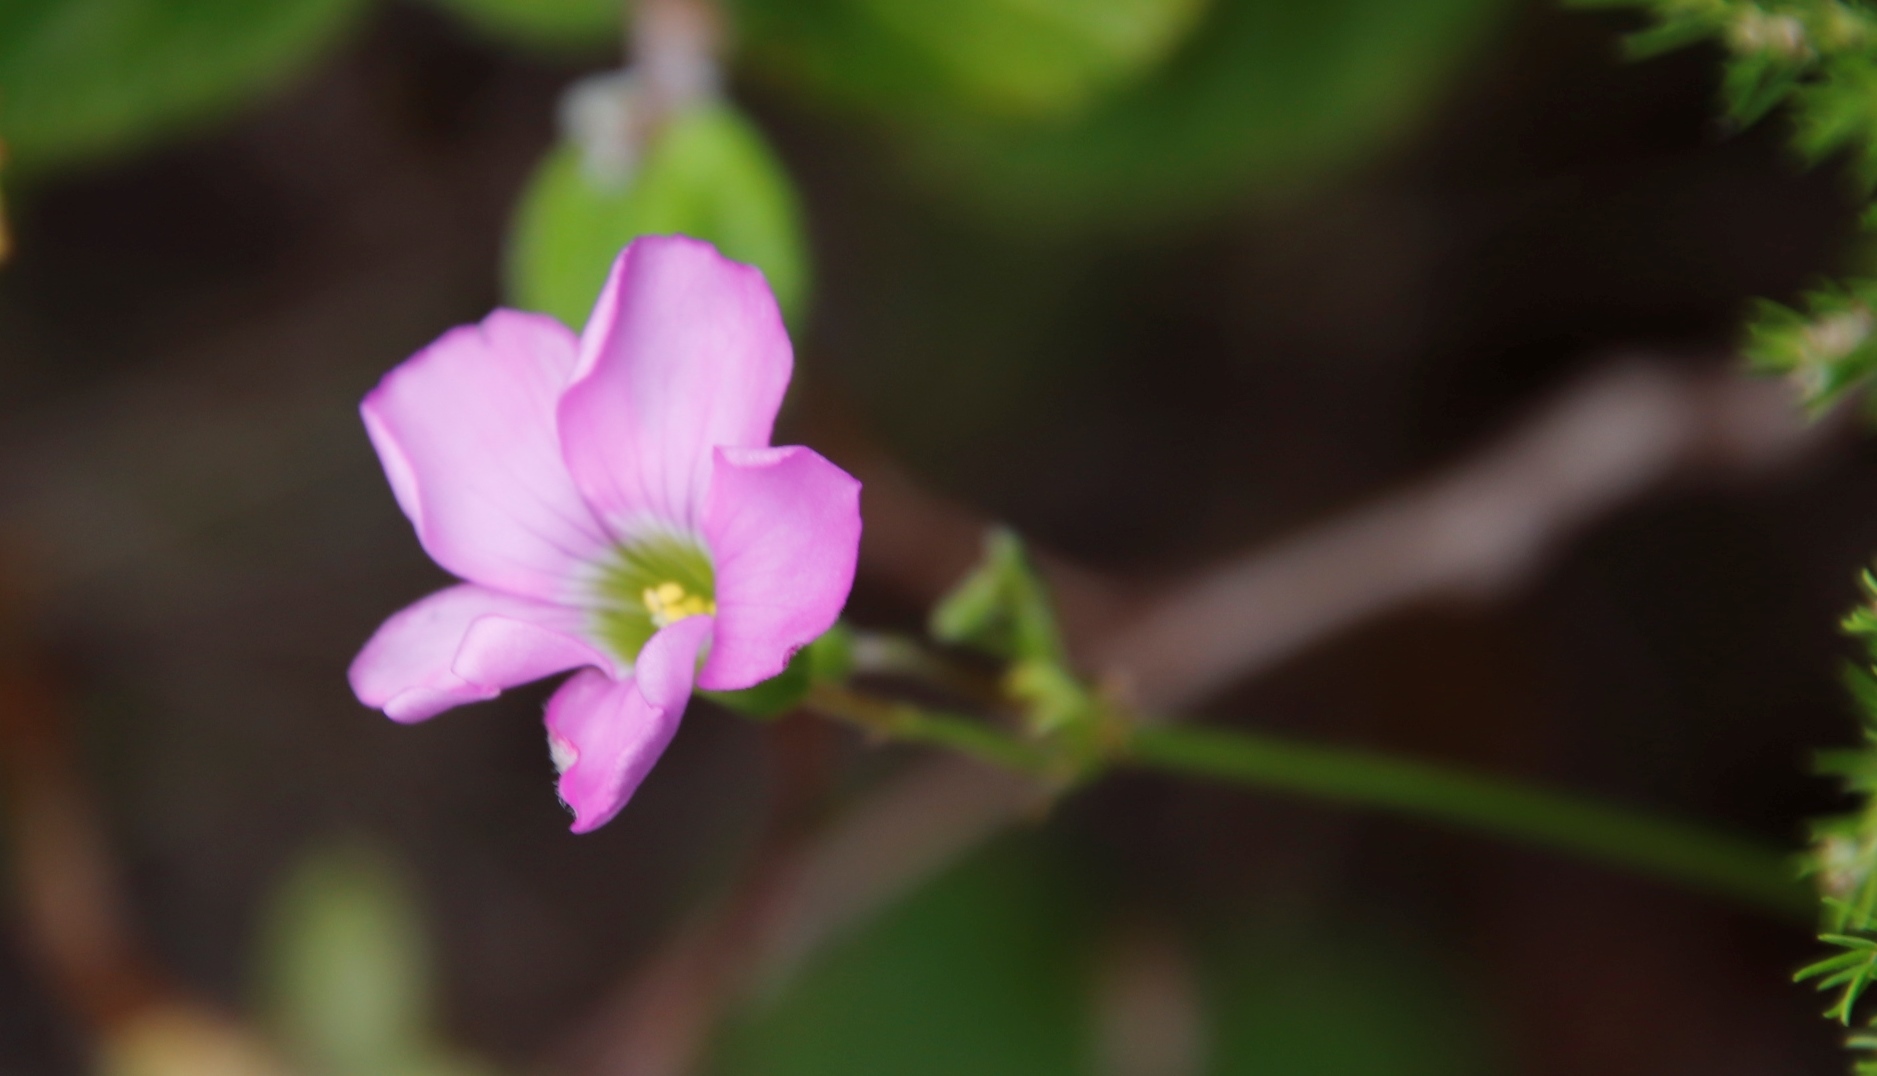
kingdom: Plantae
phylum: Tracheophyta
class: Magnoliopsida
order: Oxalidales
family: Oxalidaceae
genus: Oxalis
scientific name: Oxalis bifida
